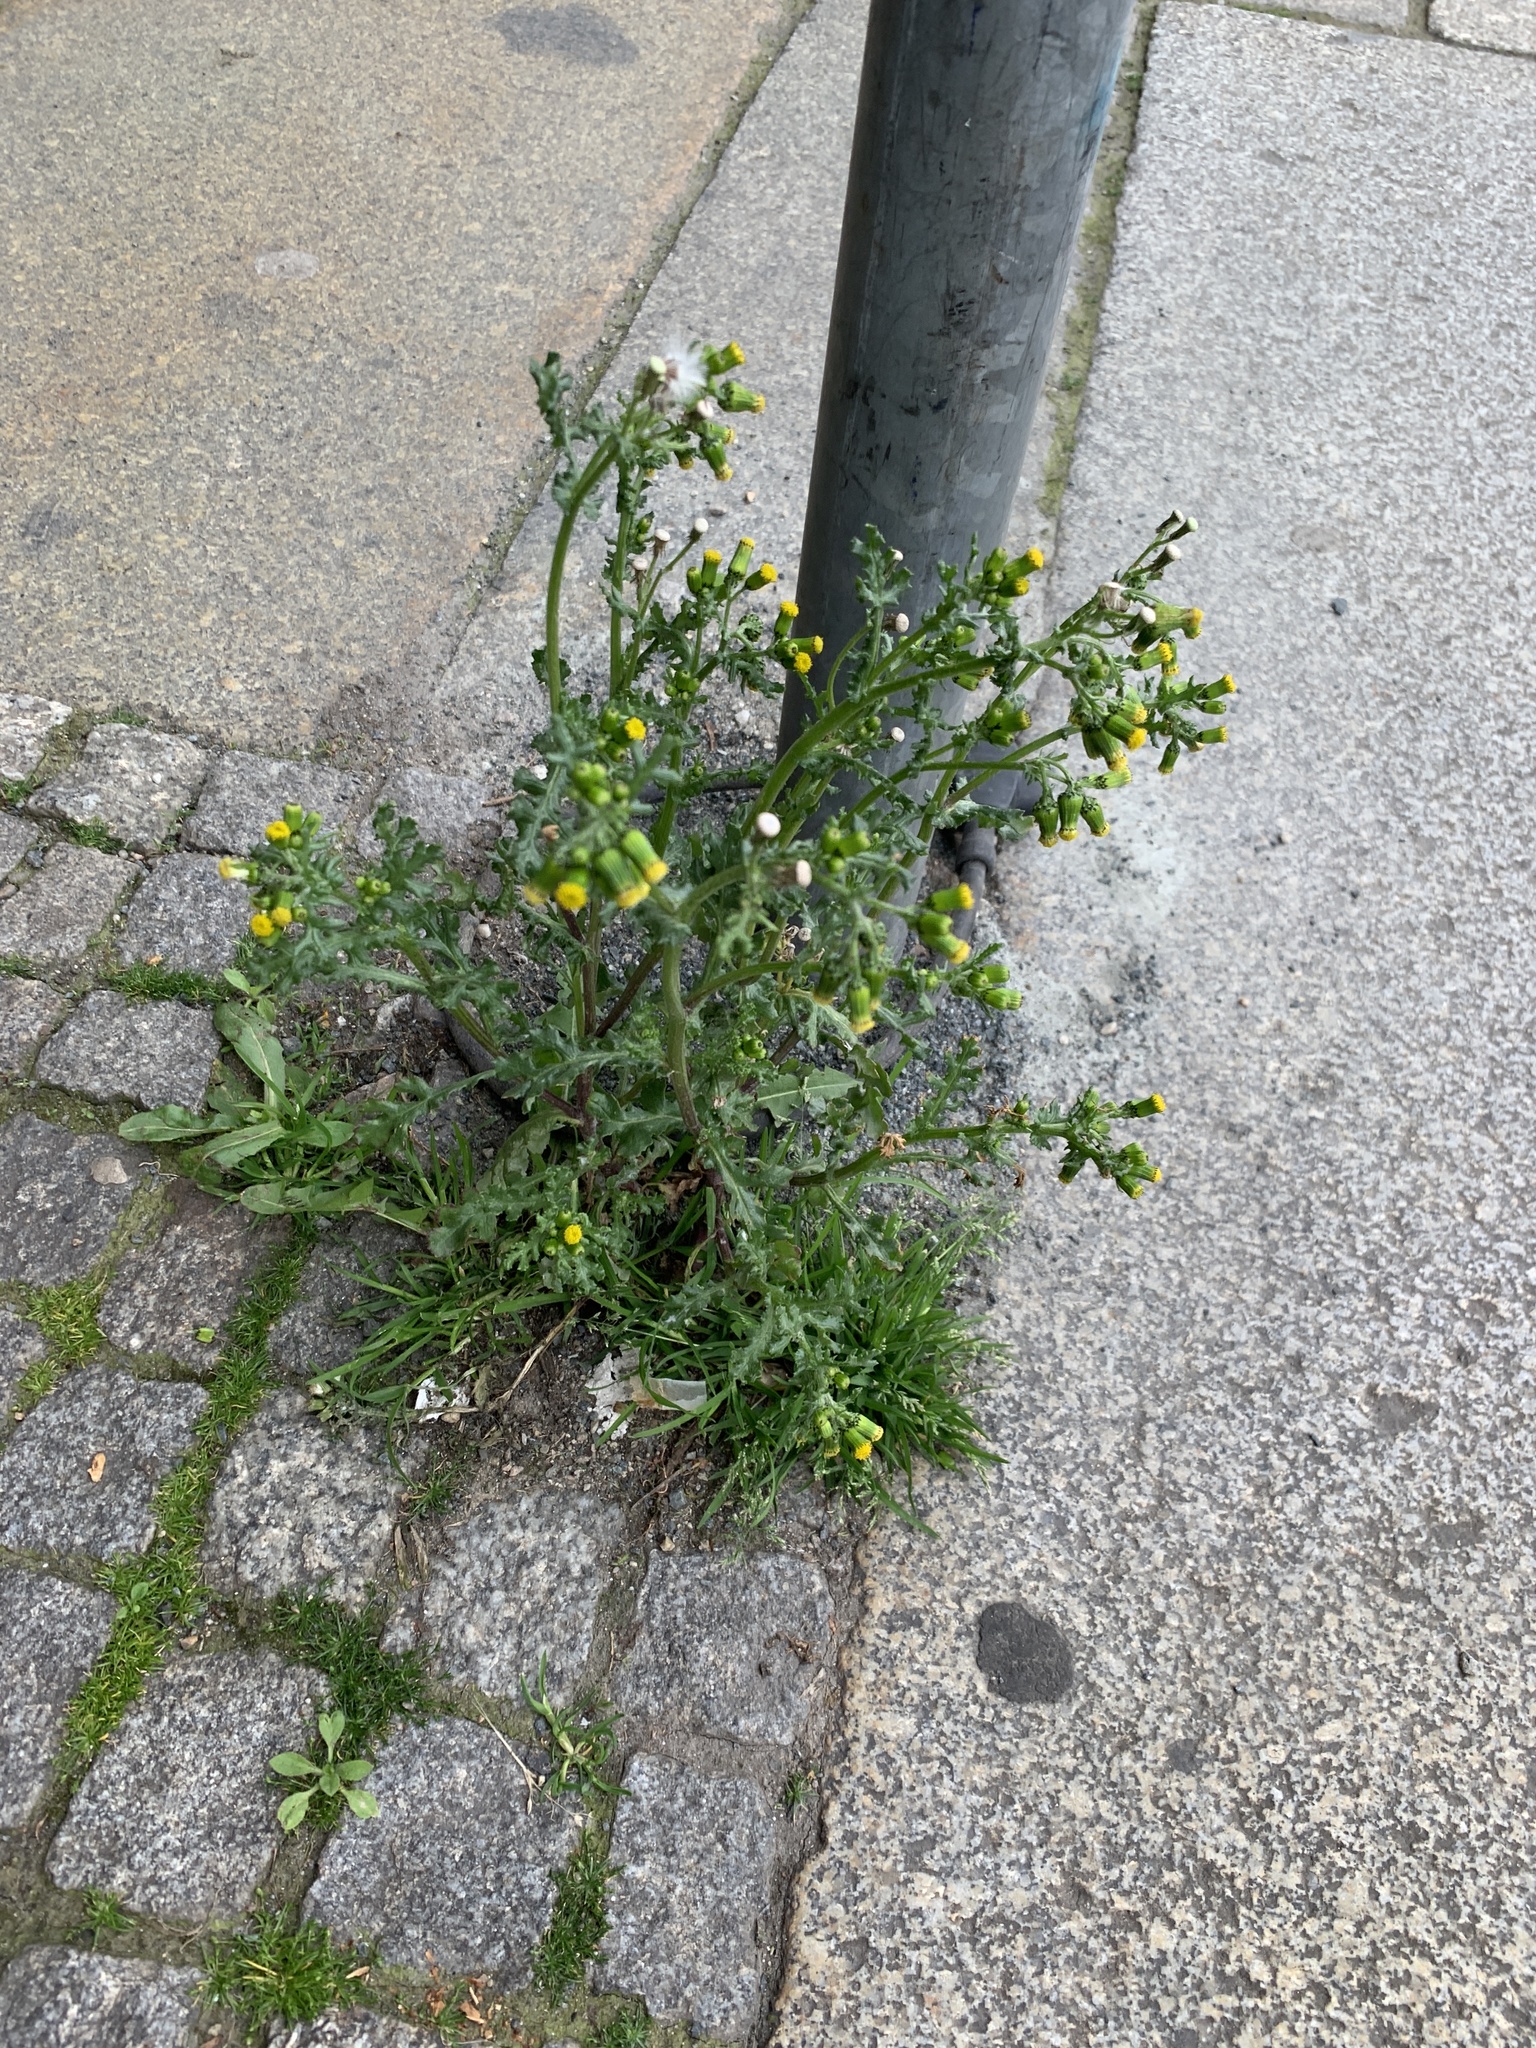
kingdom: Plantae
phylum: Tracheophyta
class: Magnoliopsida
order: Caryophyllales
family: Caryophyllaceae
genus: Sagina
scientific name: Sagina procumbens
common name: Procumbent pearlwort
